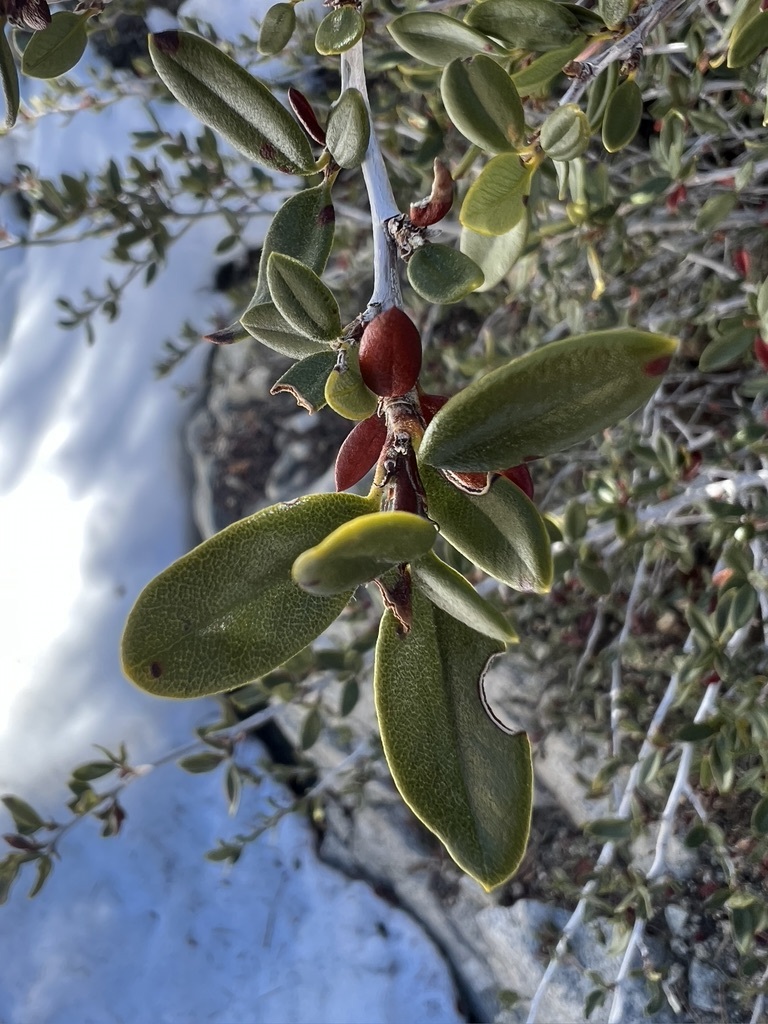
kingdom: Plantae
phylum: Tracheophyta
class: Magnoliopsida
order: Rosales
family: Rosaceae
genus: Cercocarpus
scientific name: Cercocarpus ledifolius
